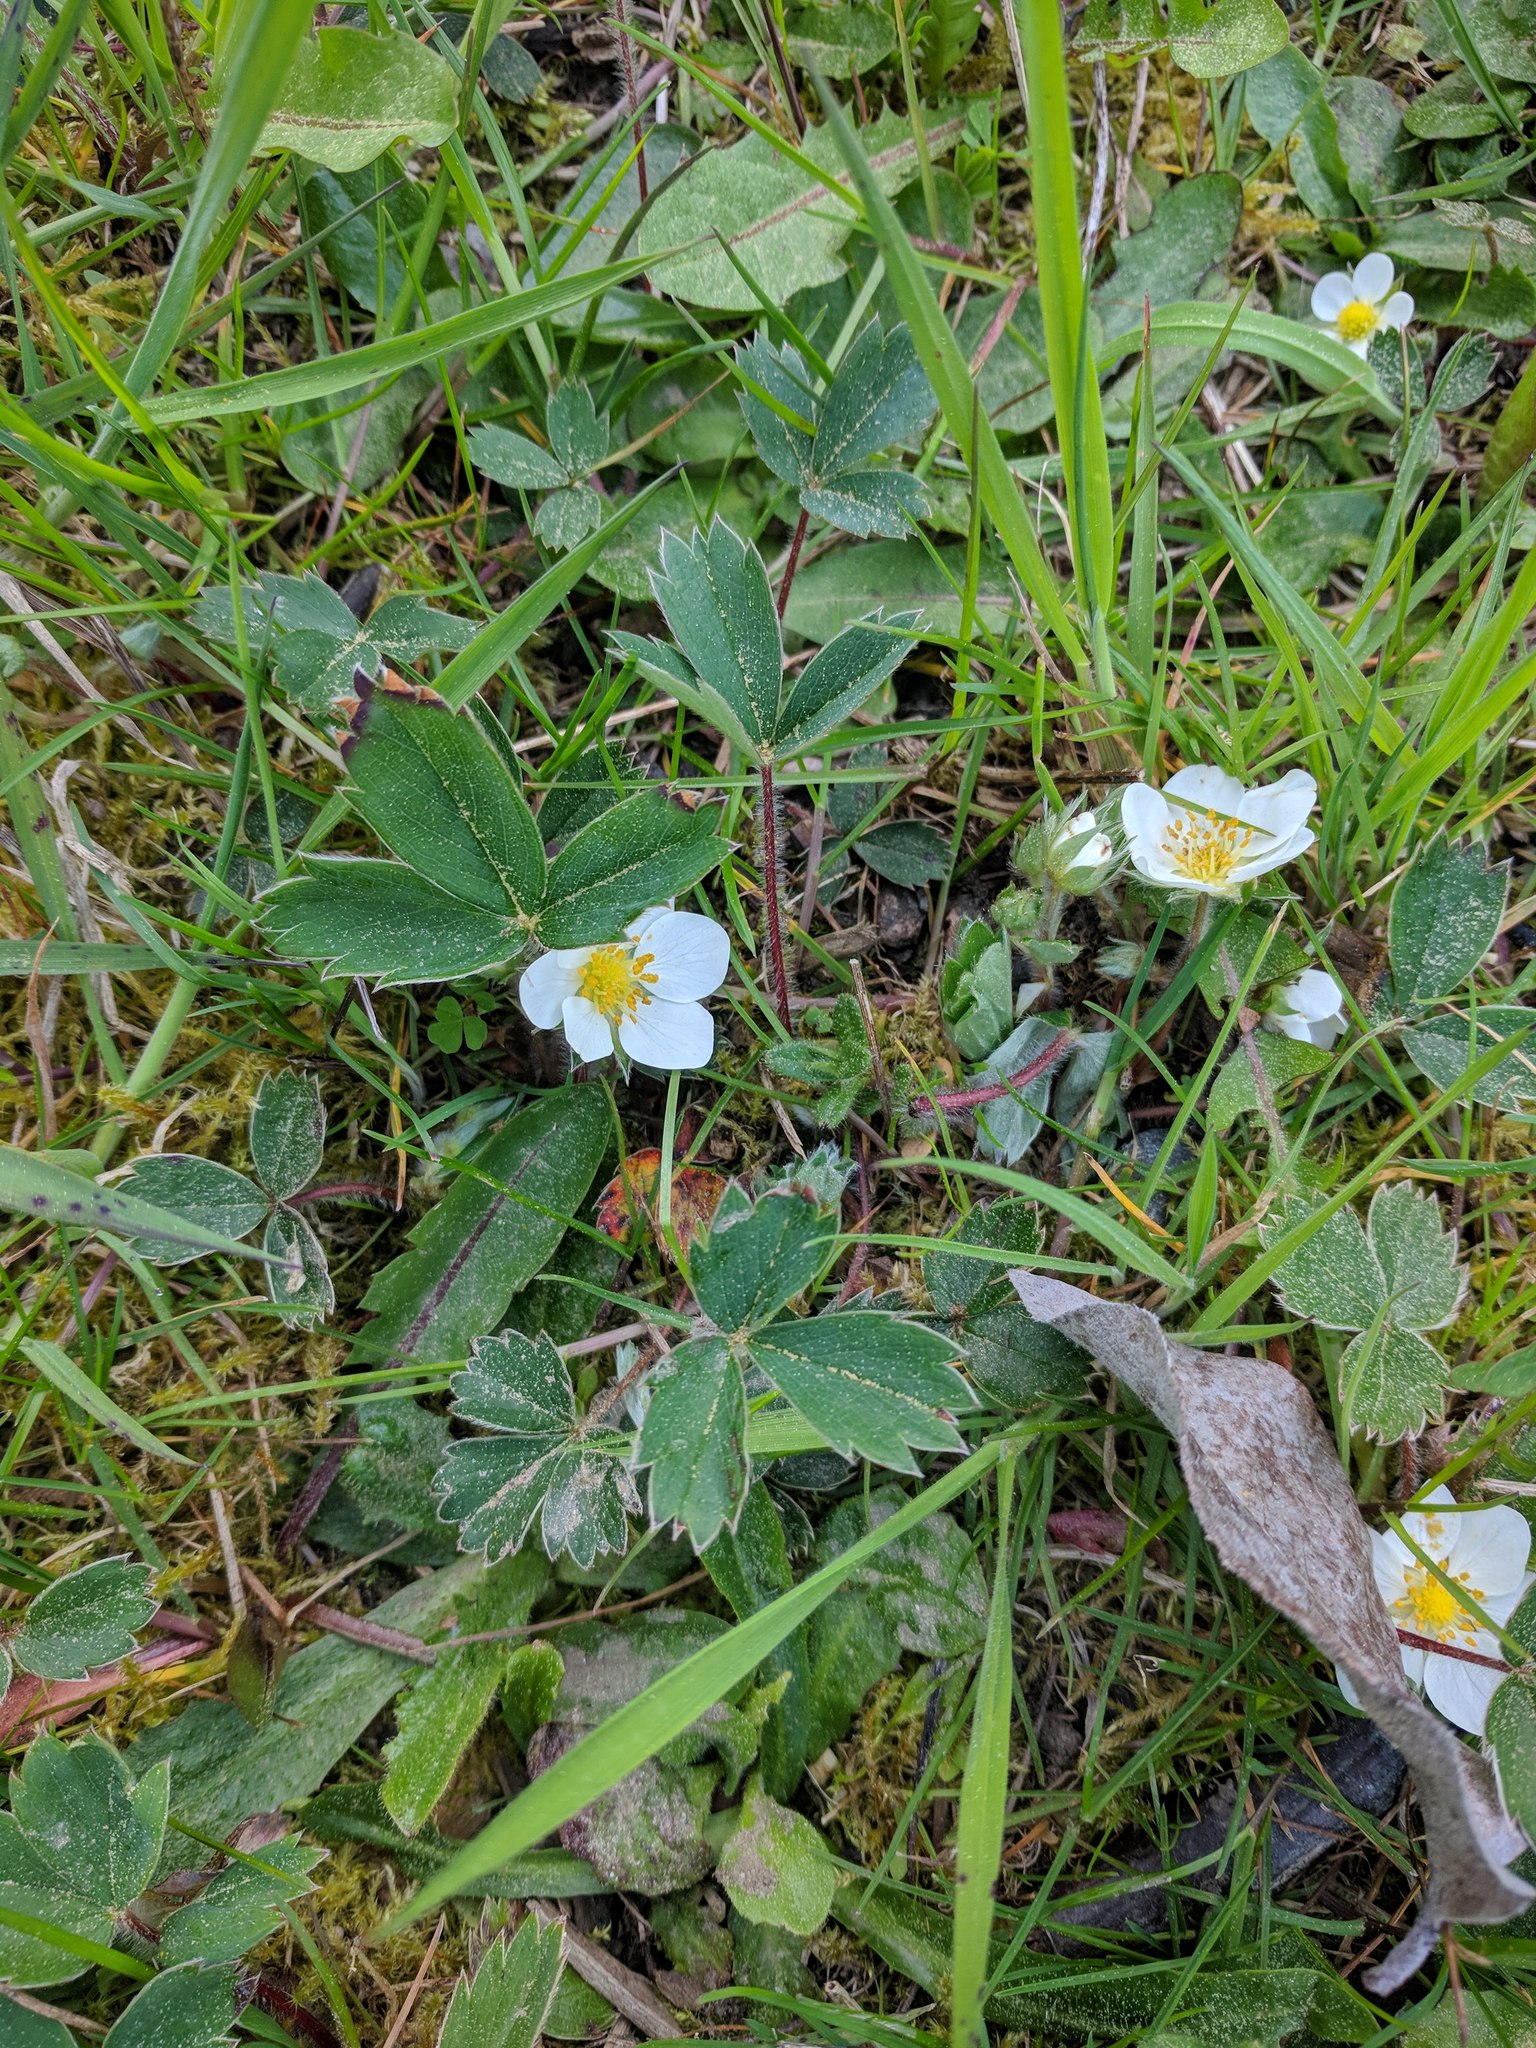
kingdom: Plantae
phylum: Tracheophyta
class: Magnoliopsida
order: Rosales
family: Rosaceae
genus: Fragaria
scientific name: Fragaria virginiana
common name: Thickleaved wild strawberry
